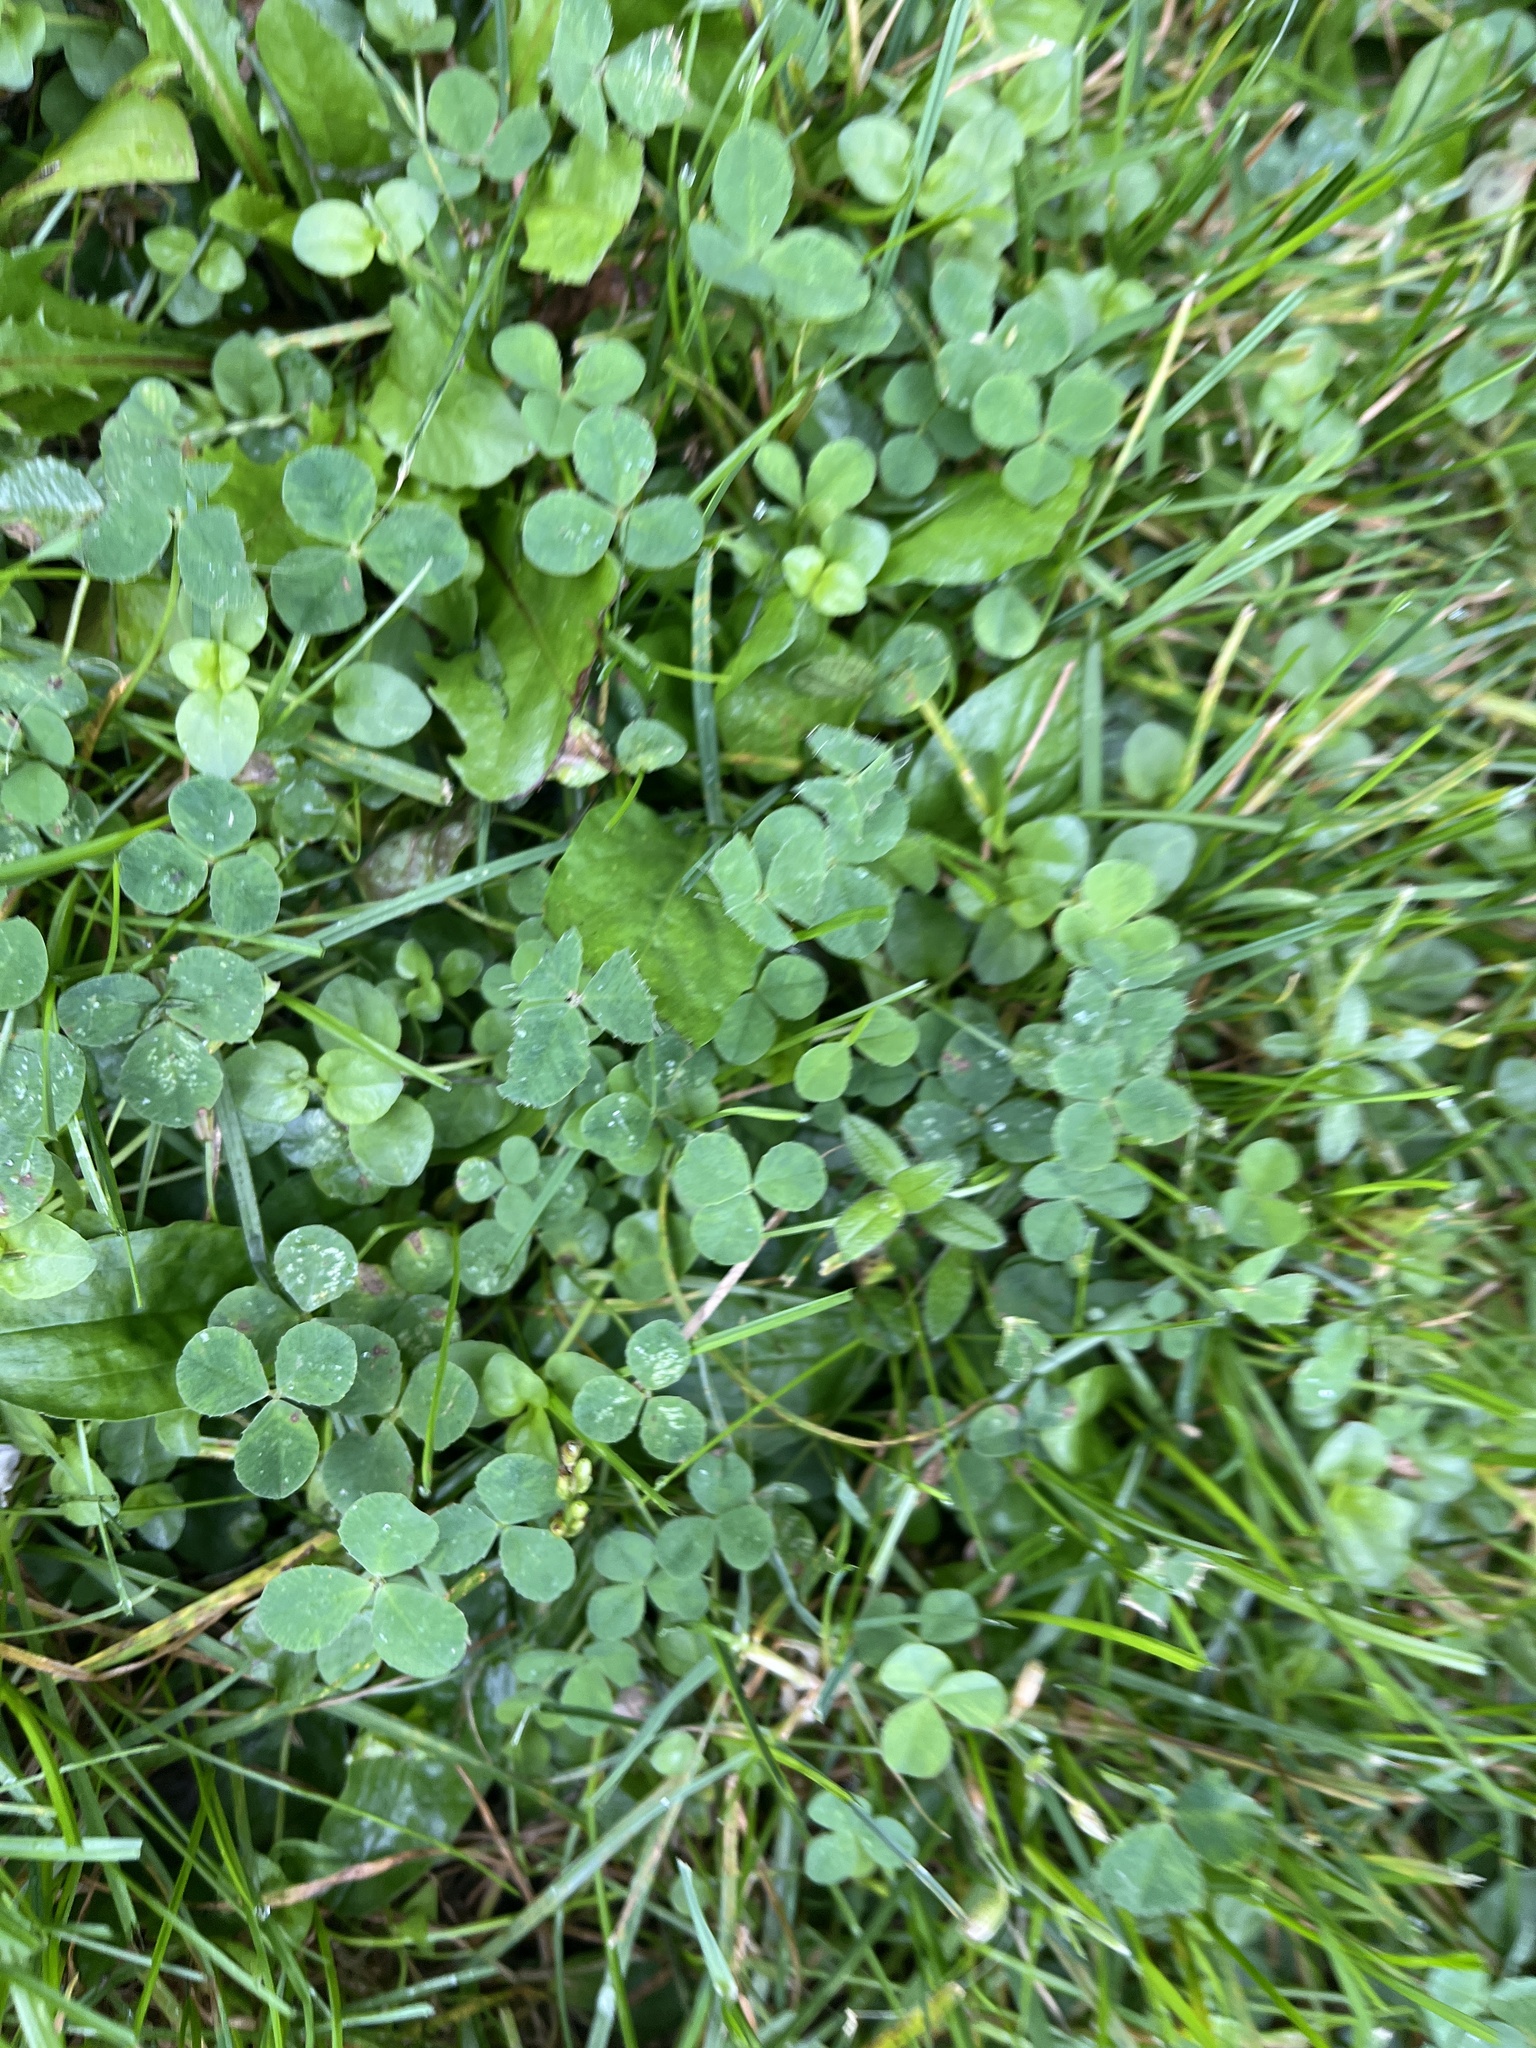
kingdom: Plantae
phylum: Tracheophyta
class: Magnoliopsida
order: Fabales
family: Fabaceae
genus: Trifolium
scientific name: Trifolium repens
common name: White clover
